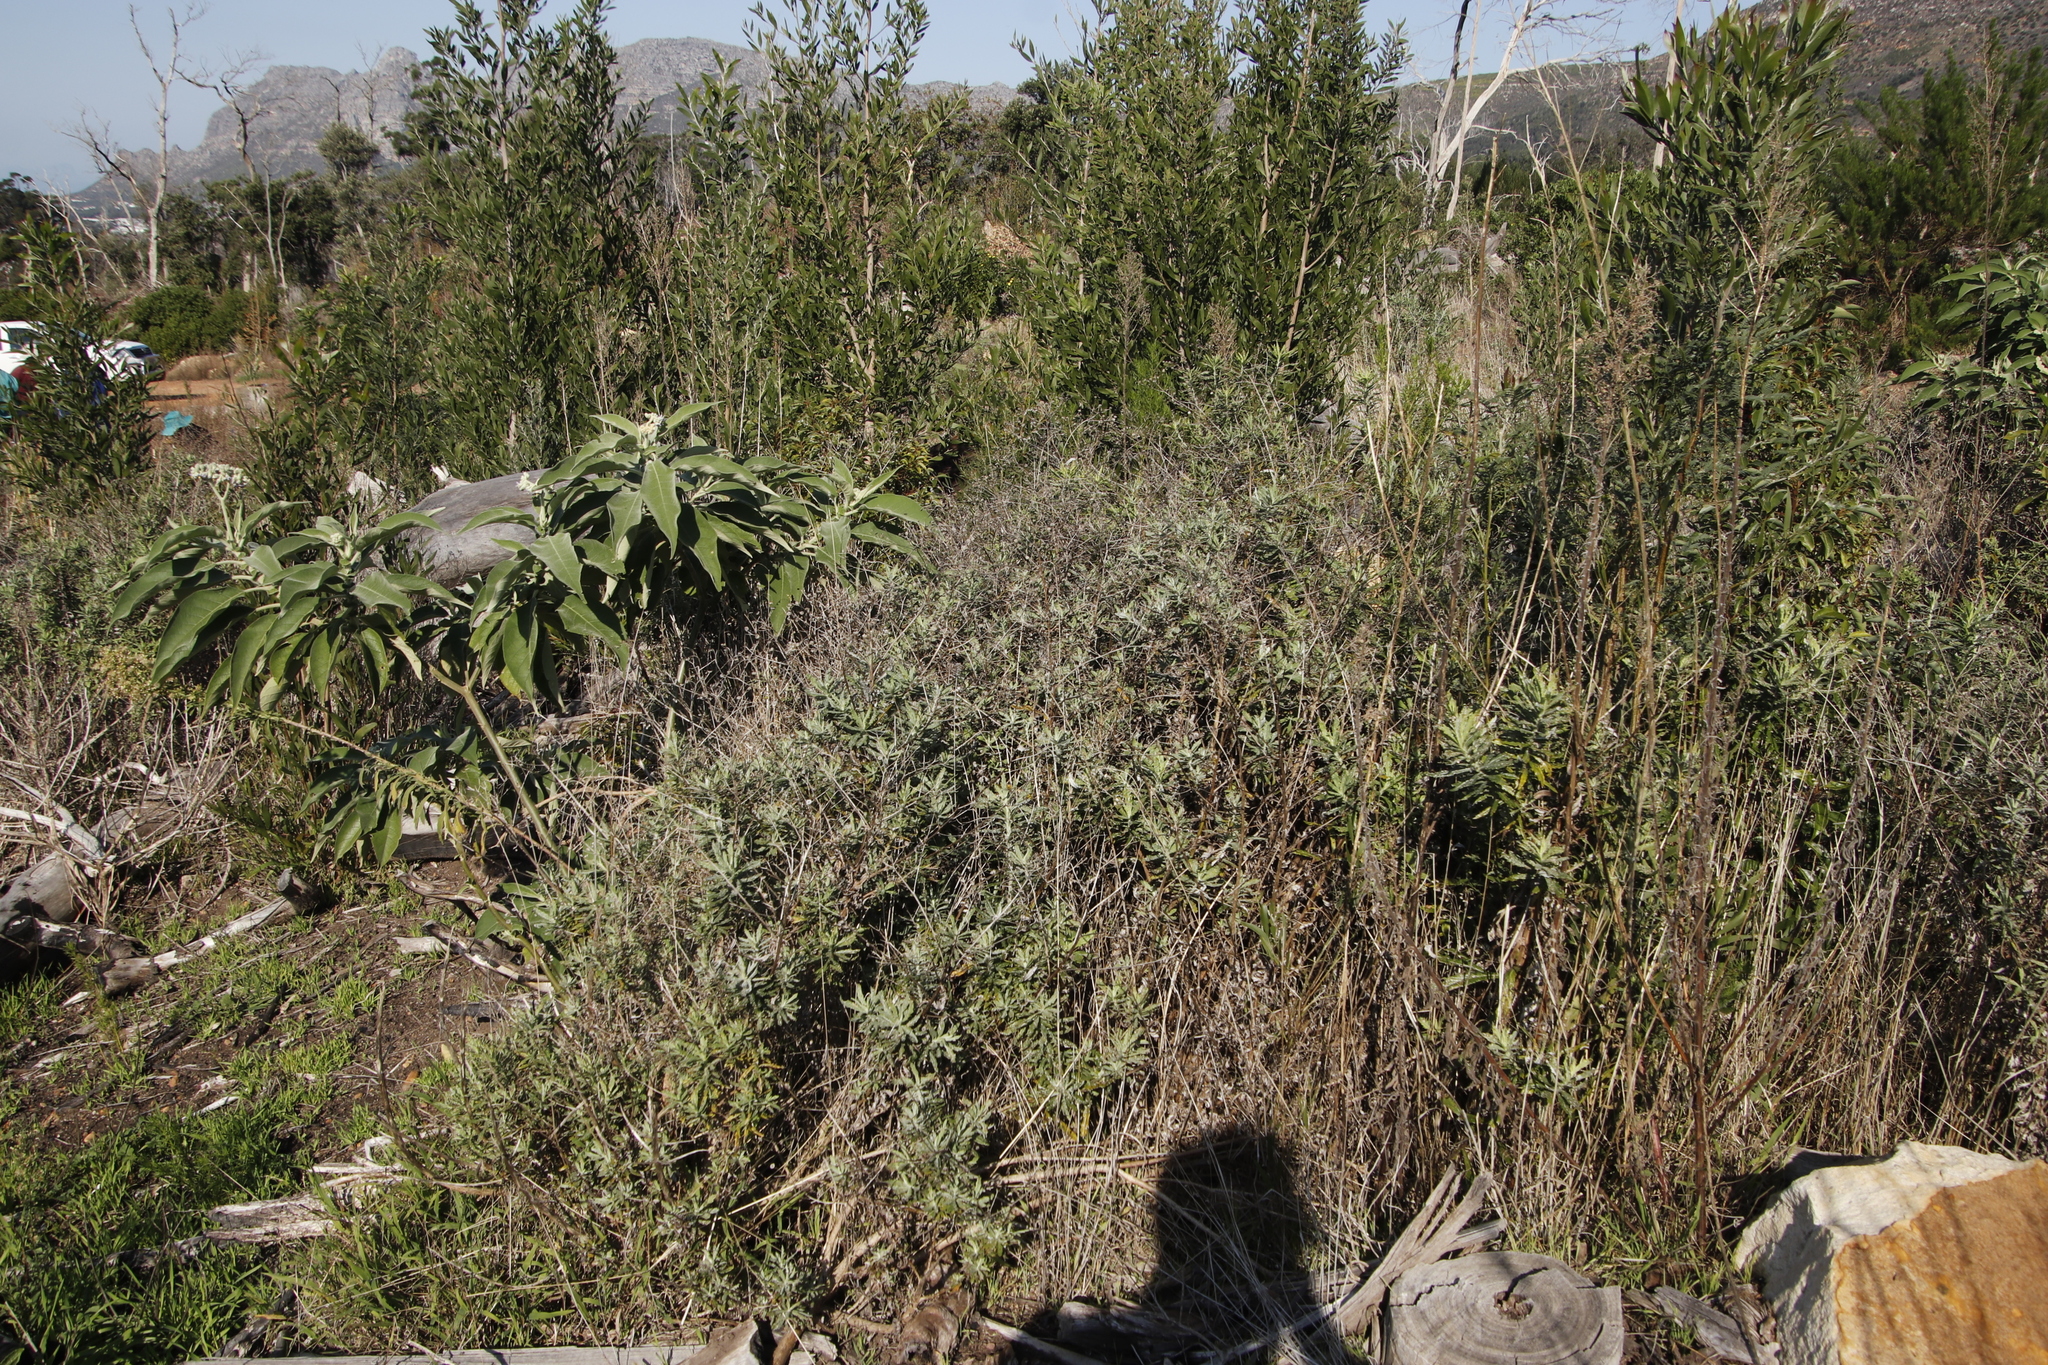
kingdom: Plantae
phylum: Tracheophyta
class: Magnoliopsida
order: Asterales
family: Asteraceae
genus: Senecio
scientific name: Senecio pterophorus
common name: Shoddy ragwort
